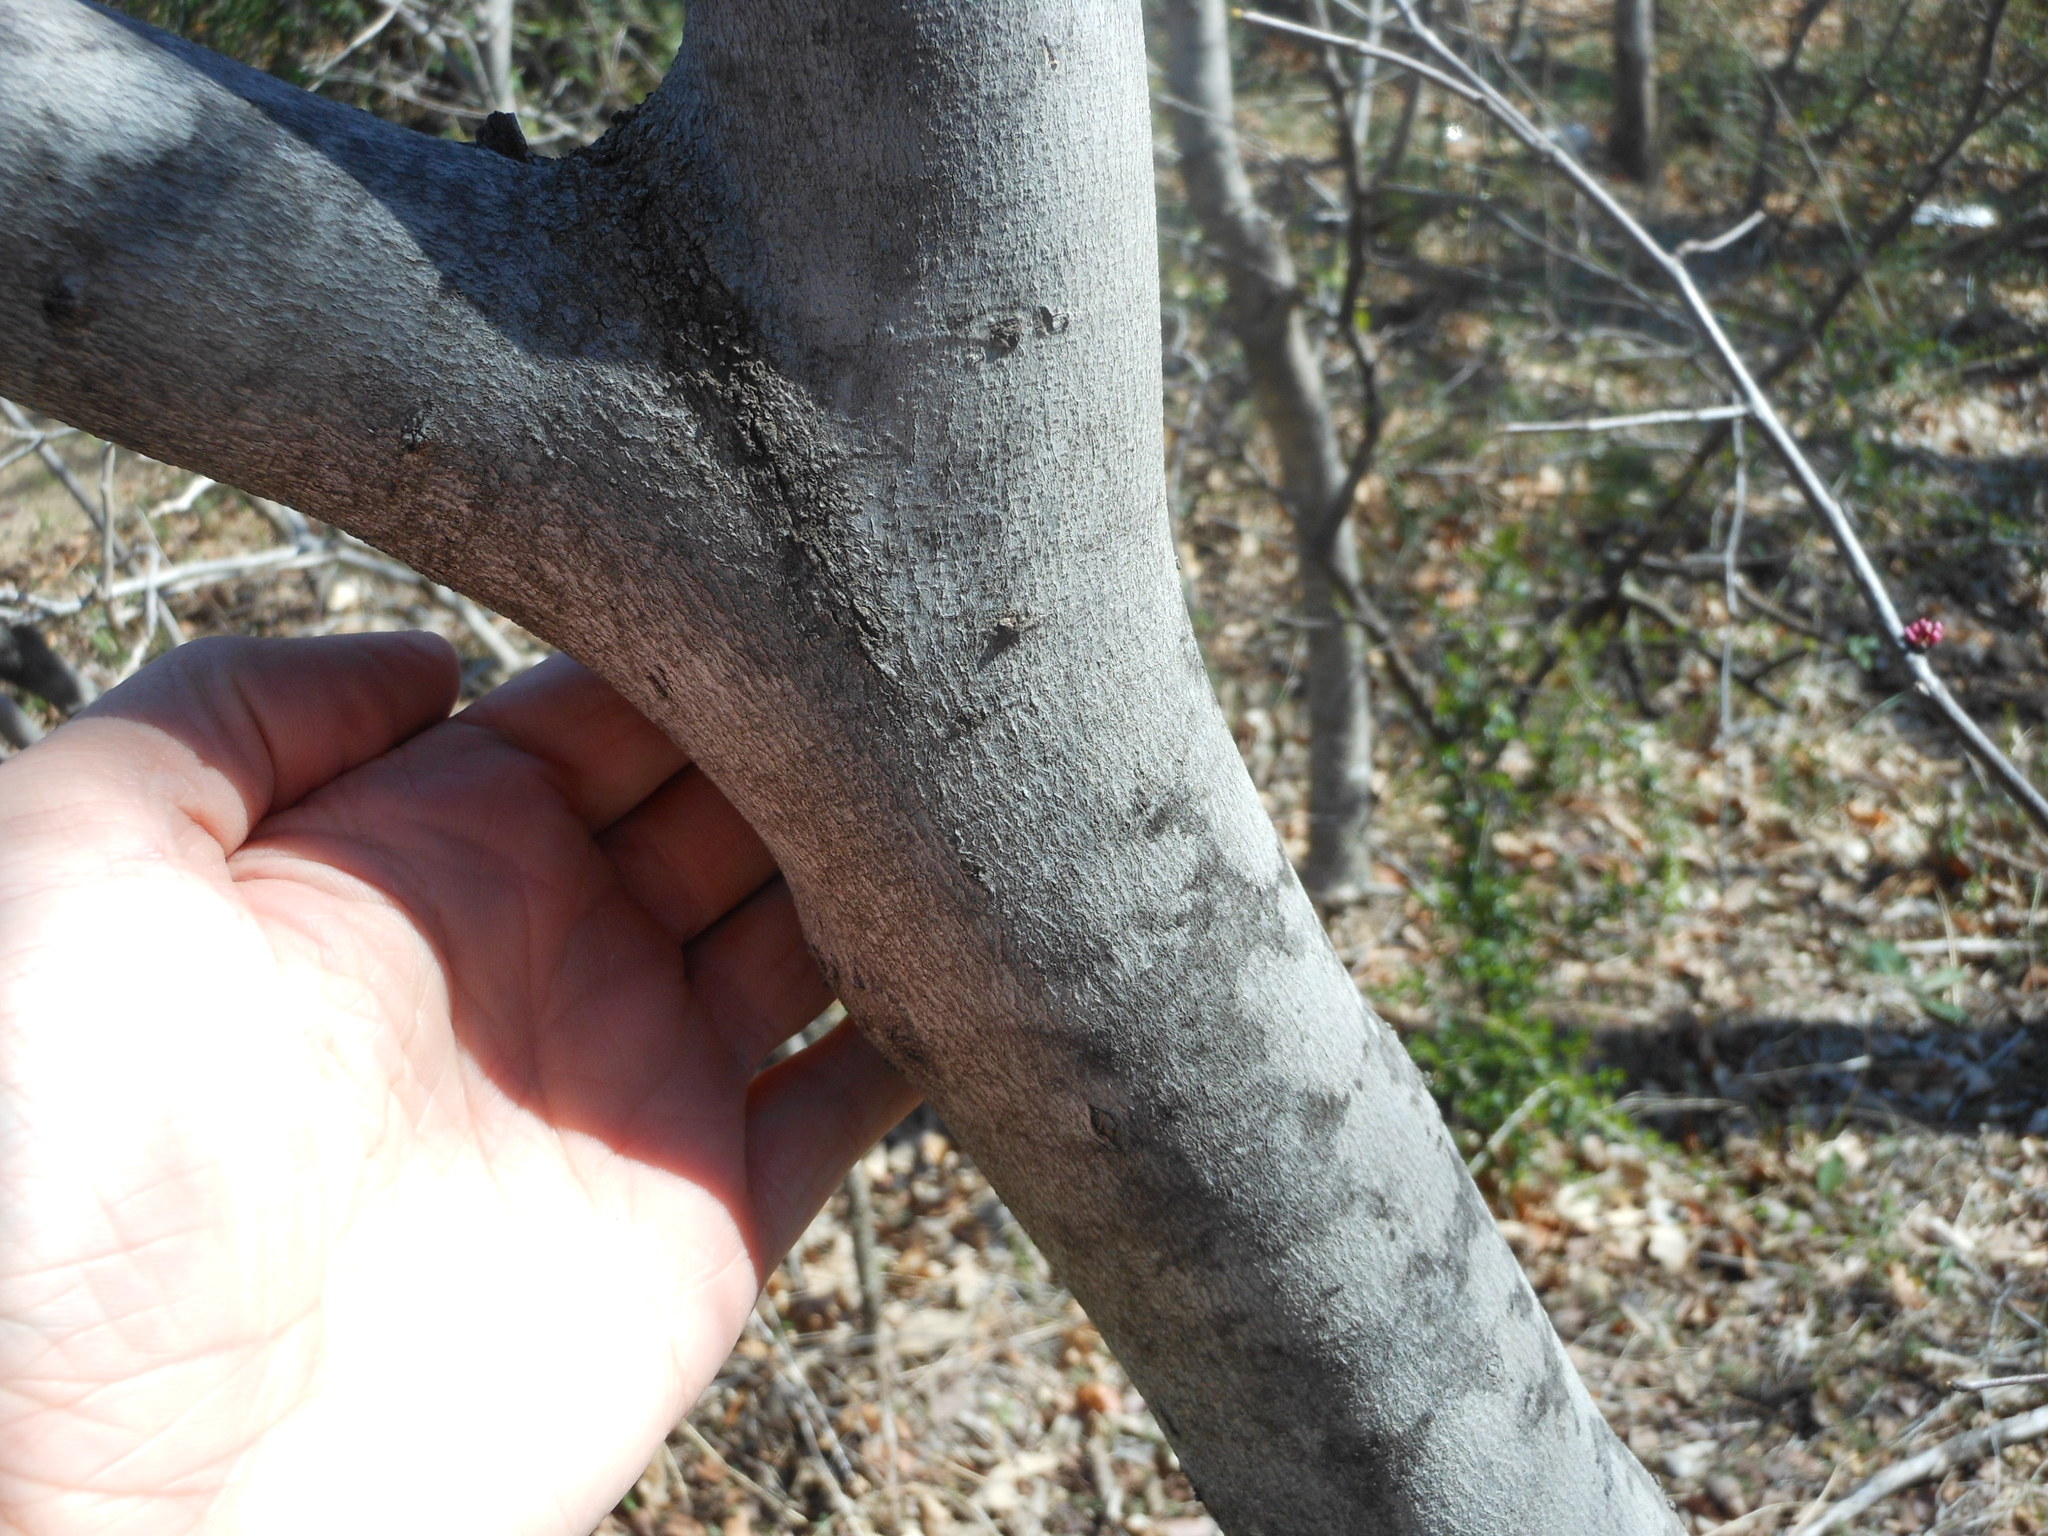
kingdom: Plantae
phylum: Tracheophyta
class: Magnoliopsida
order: Fabales
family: Fabaceae
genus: Cercis
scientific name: Cercis canadensis
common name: Eastern redbud
